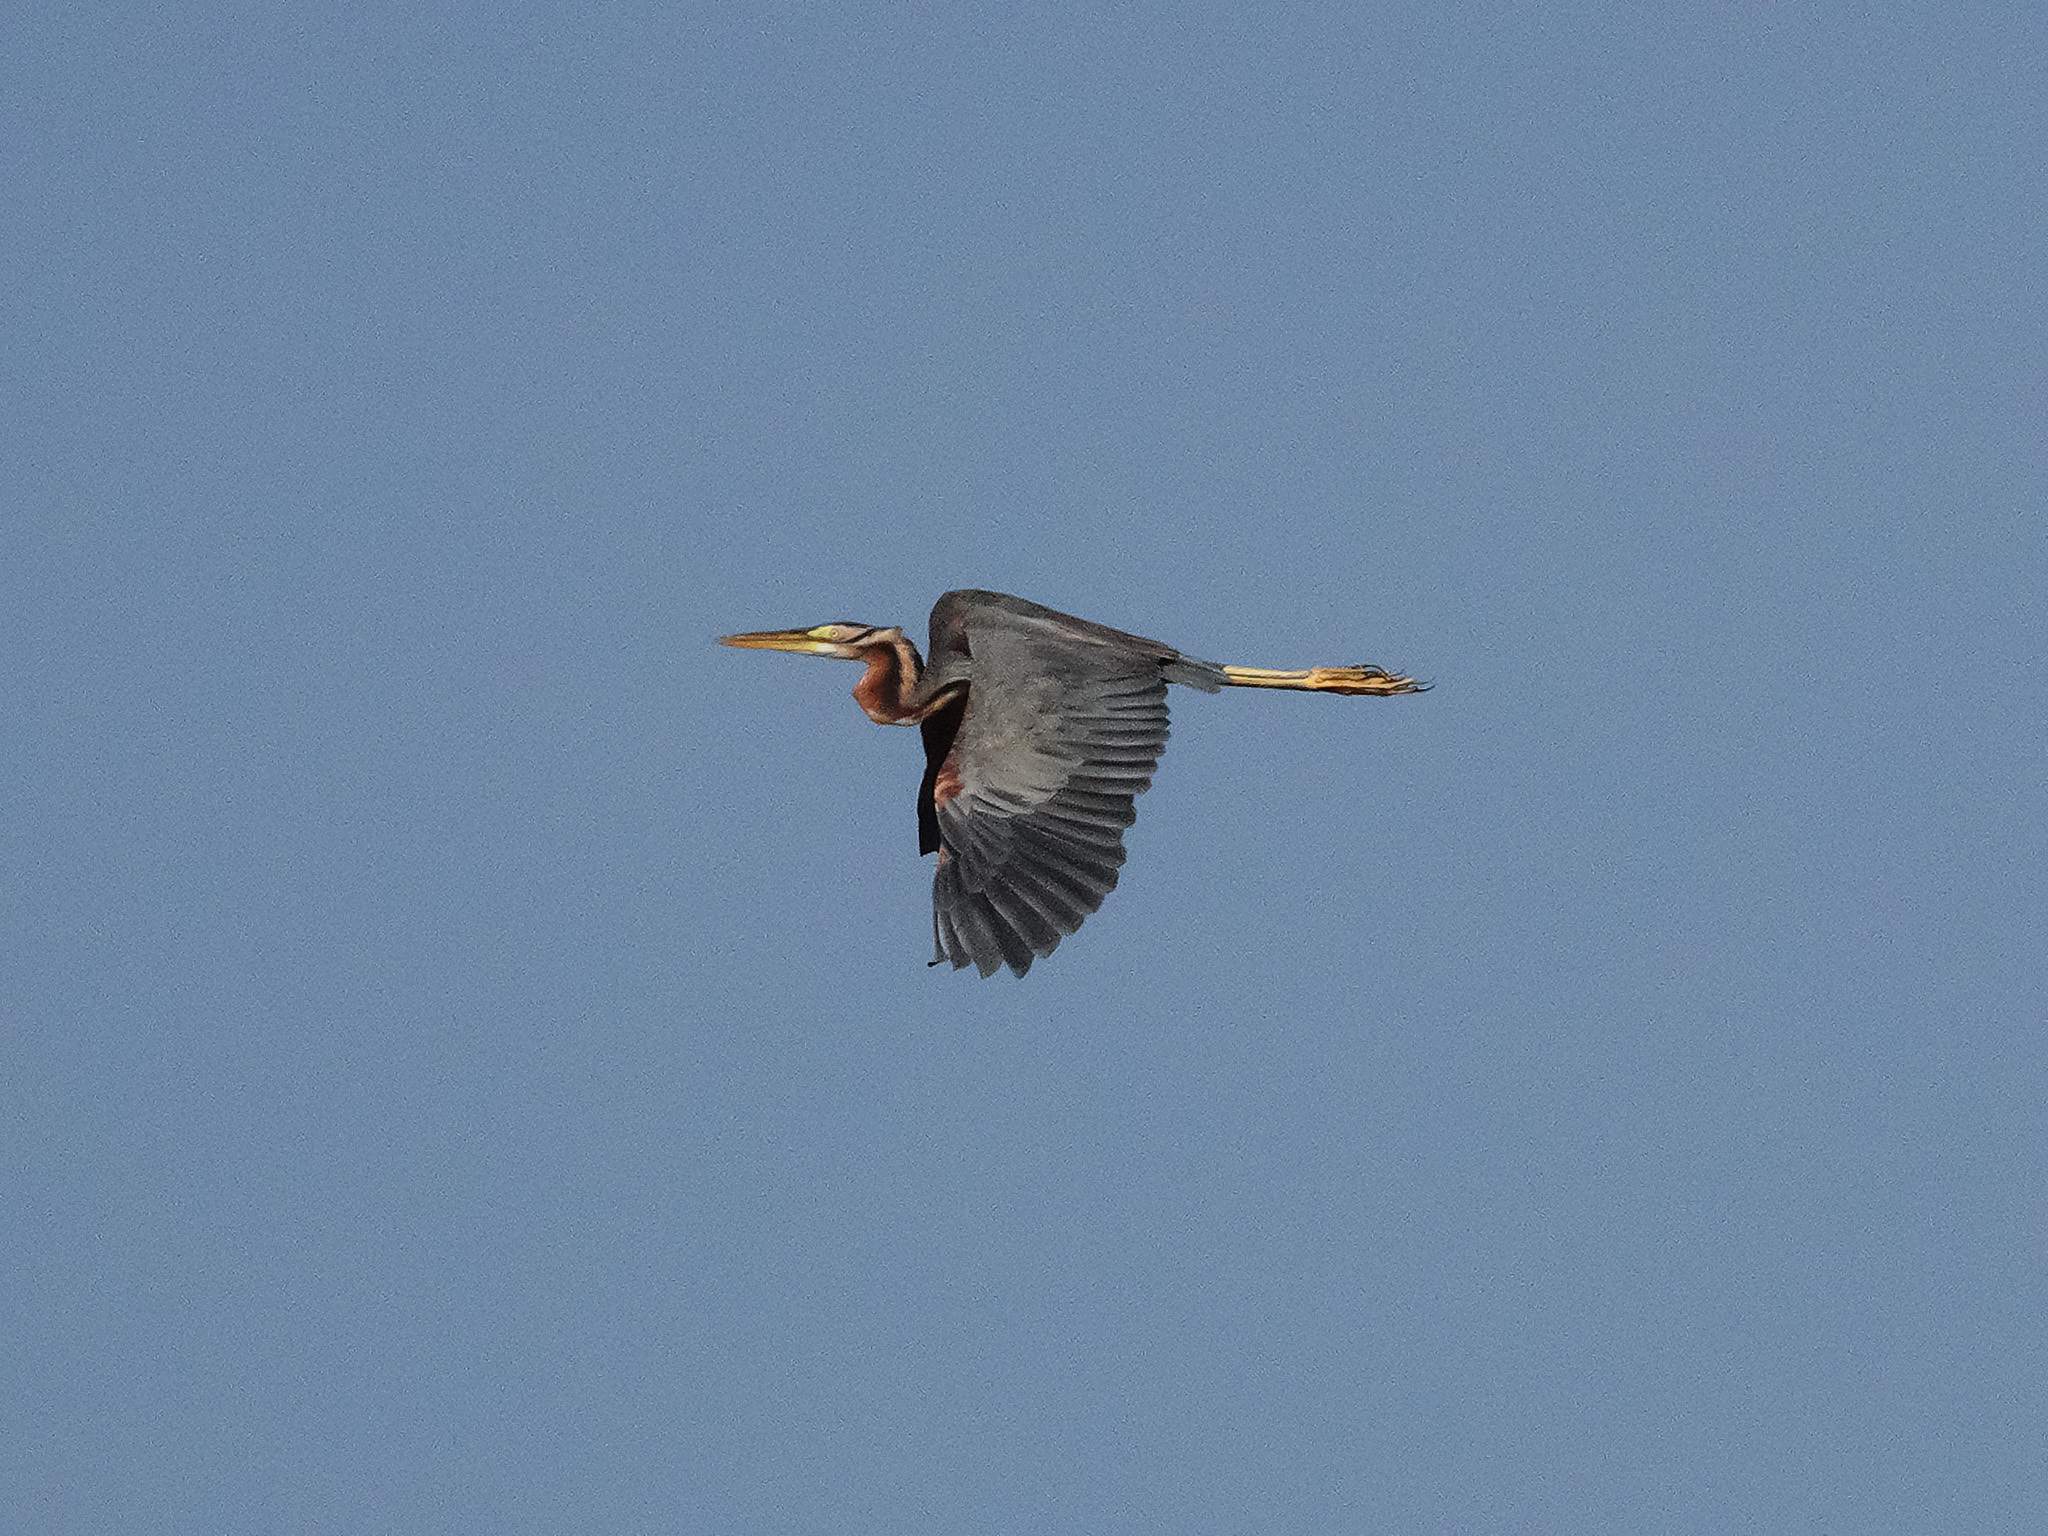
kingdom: Animalia
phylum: Chordata
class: Aves
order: Pelecaniformes
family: Ardeidae
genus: Ardea
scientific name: Ardea purpurea
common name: Purple heron
